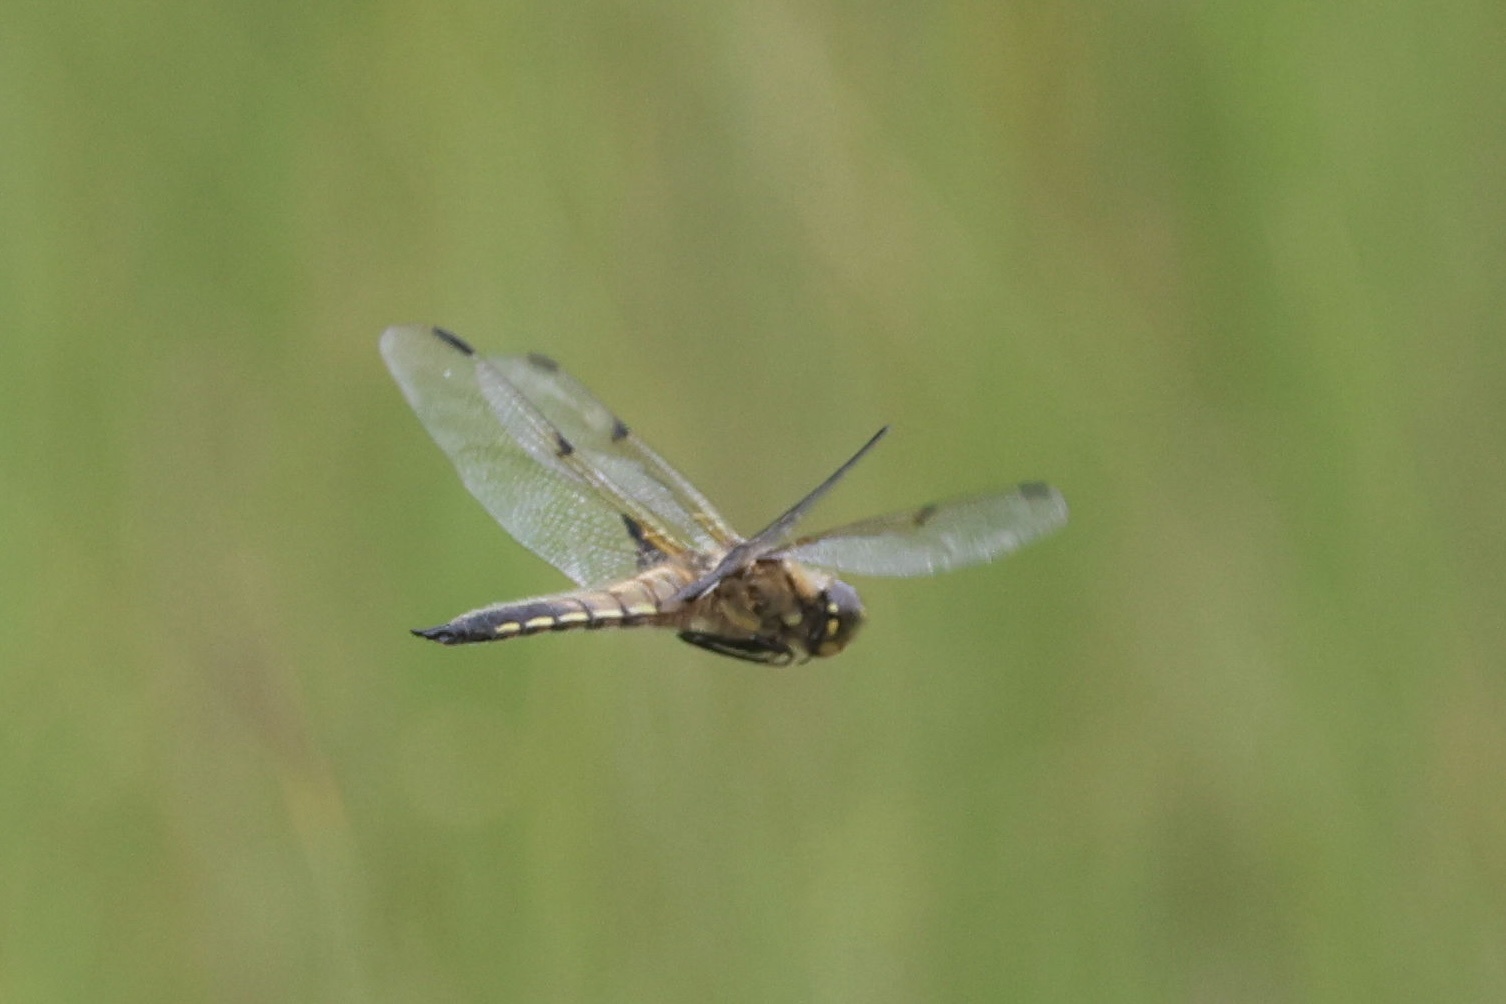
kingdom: Animalia
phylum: Arthropoda
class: Insecta
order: Odonata
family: Libellulidae
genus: Libellula
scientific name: Libellula quadrimaculata
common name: Four-spotted chaser
